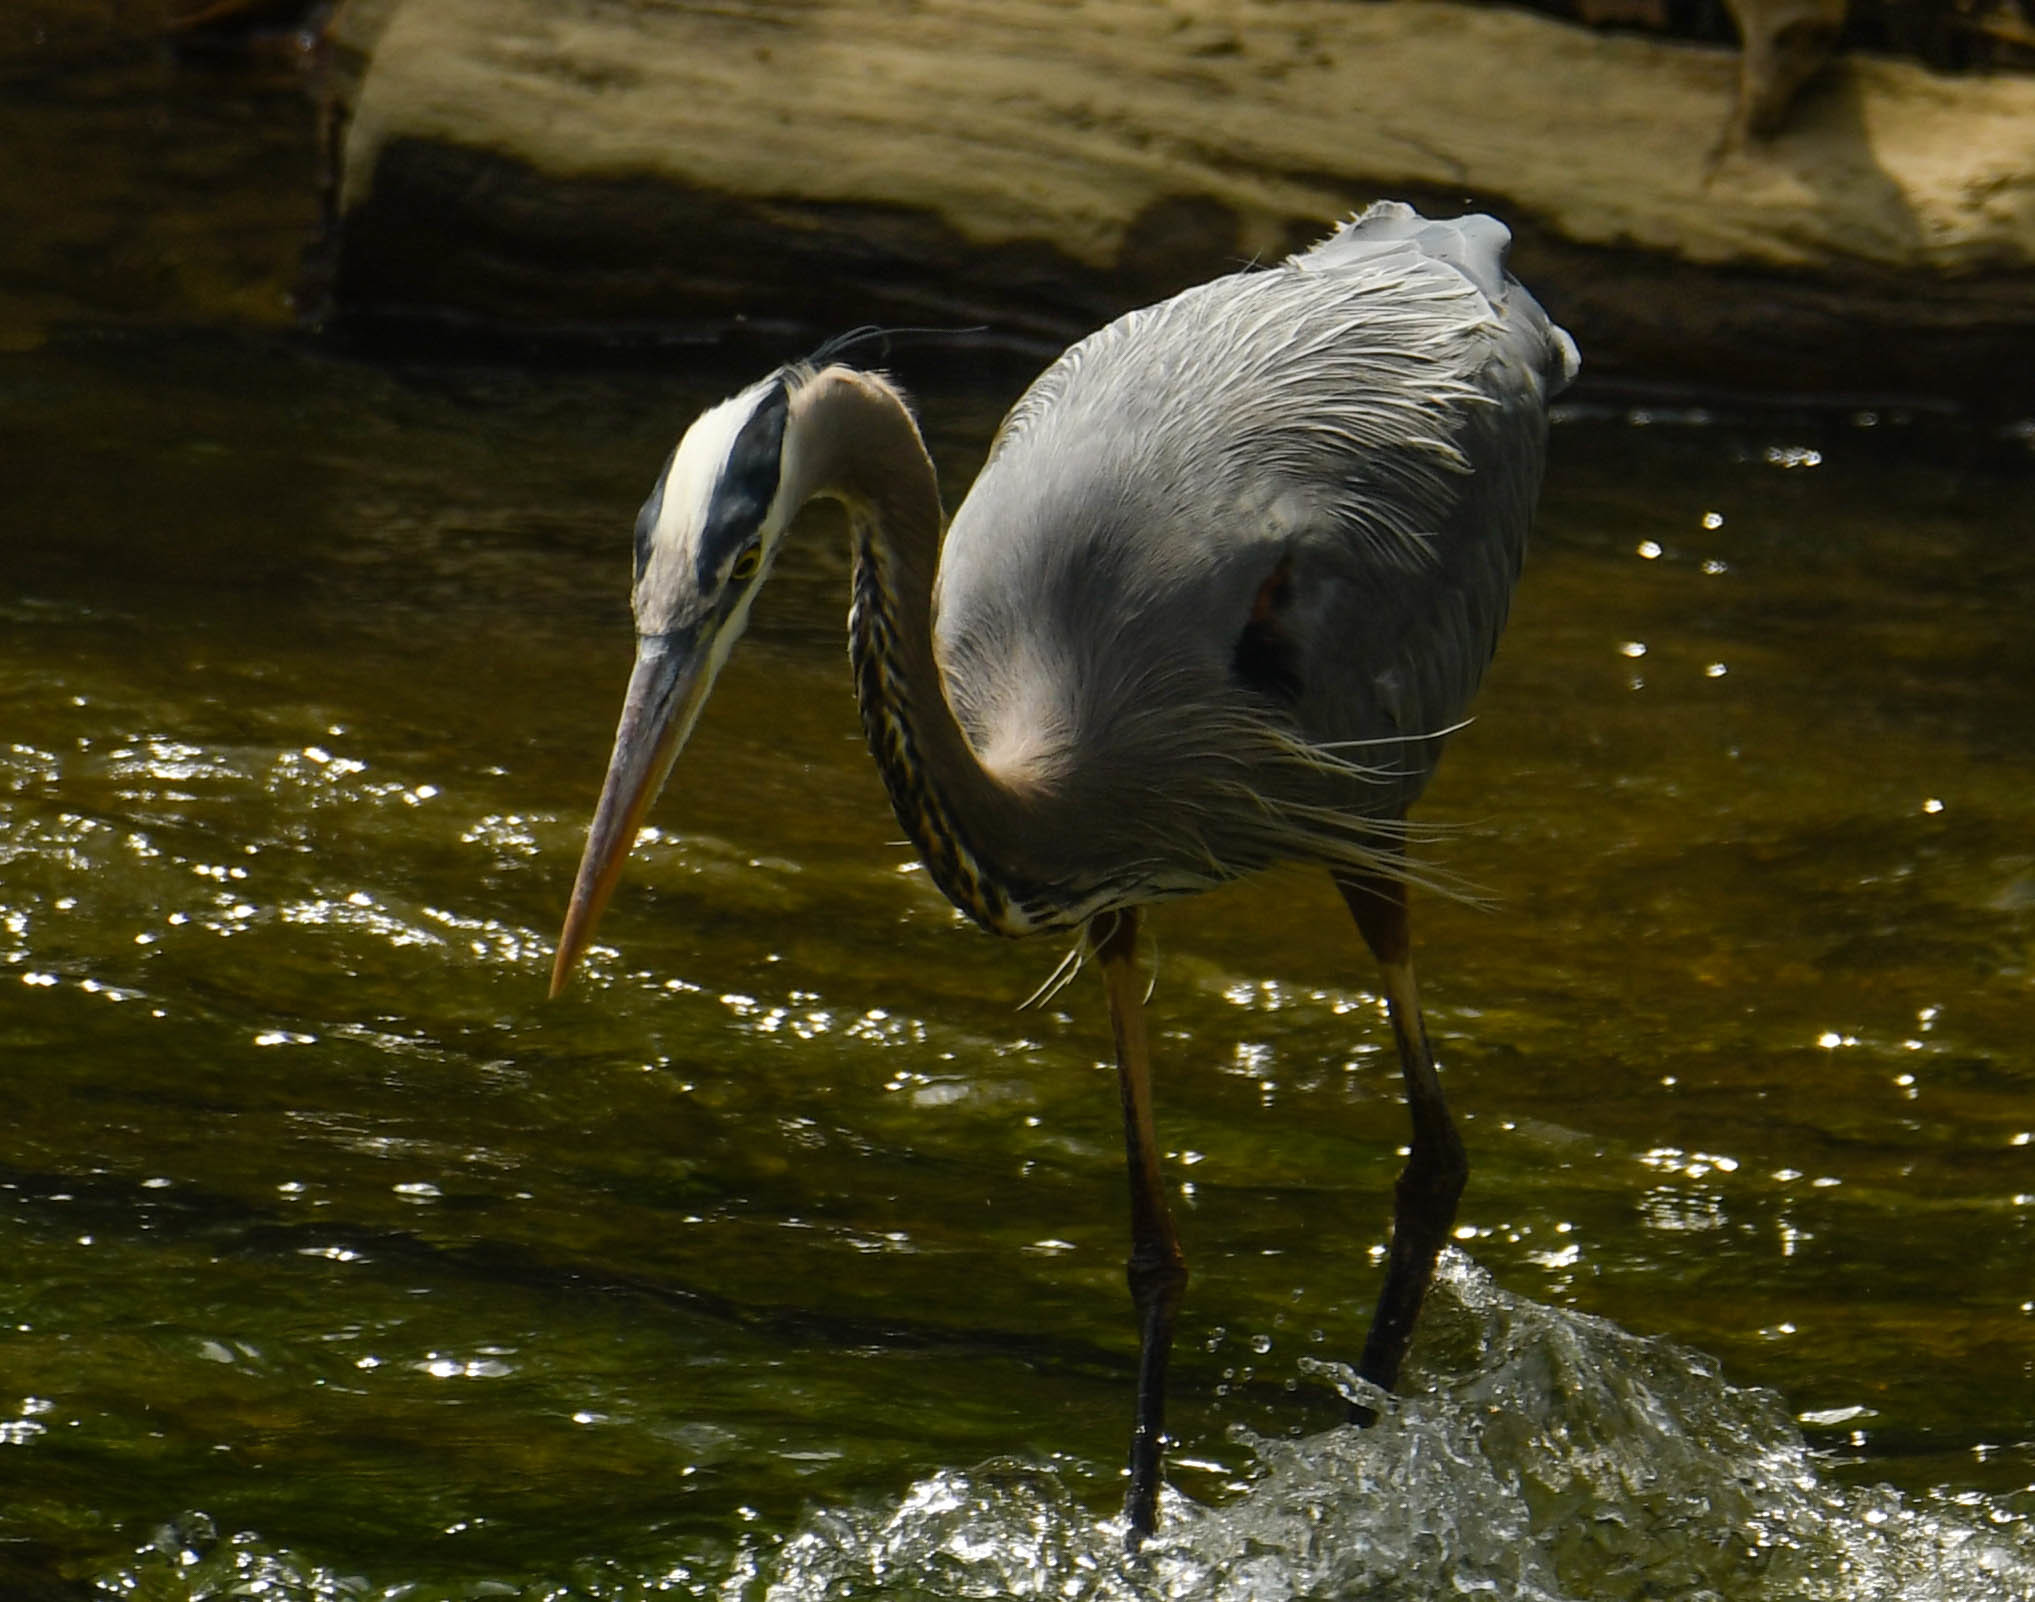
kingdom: Animalia
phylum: Chordata
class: Aves
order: Pelecaniformes
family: Ardeidae
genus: Ardea
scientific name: Ardea herodias
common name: Great blue heron
